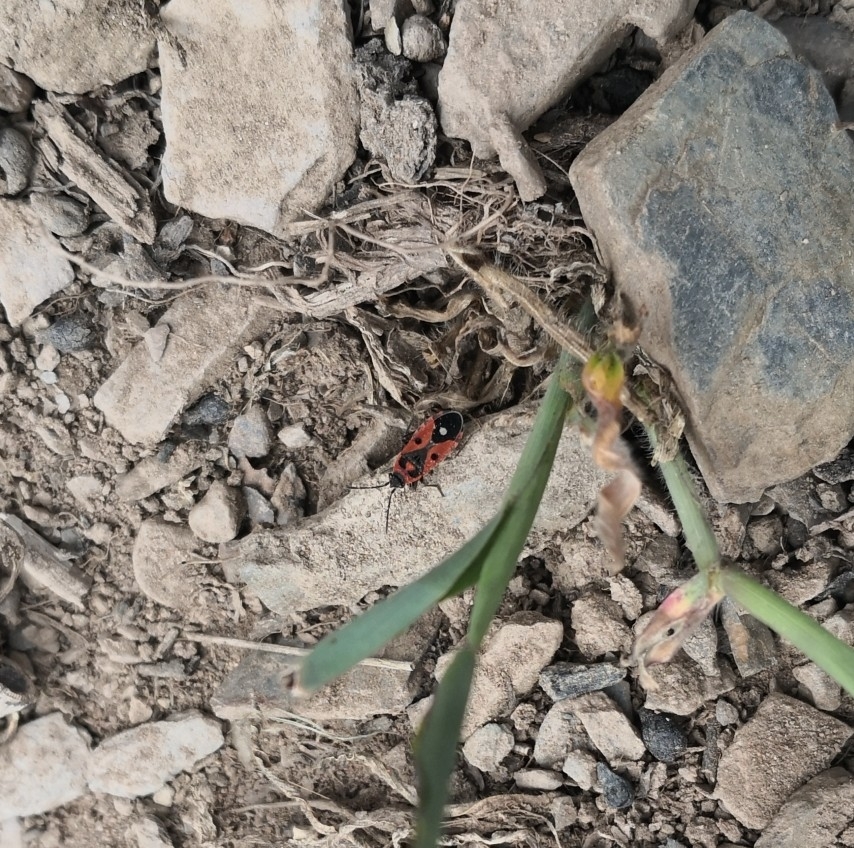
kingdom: Animalia
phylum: Arthropoda
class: Insecta
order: Hemiptera
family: Lygaeidae
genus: Melanocoryphus
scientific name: Melanocoryphus albomaculatus
